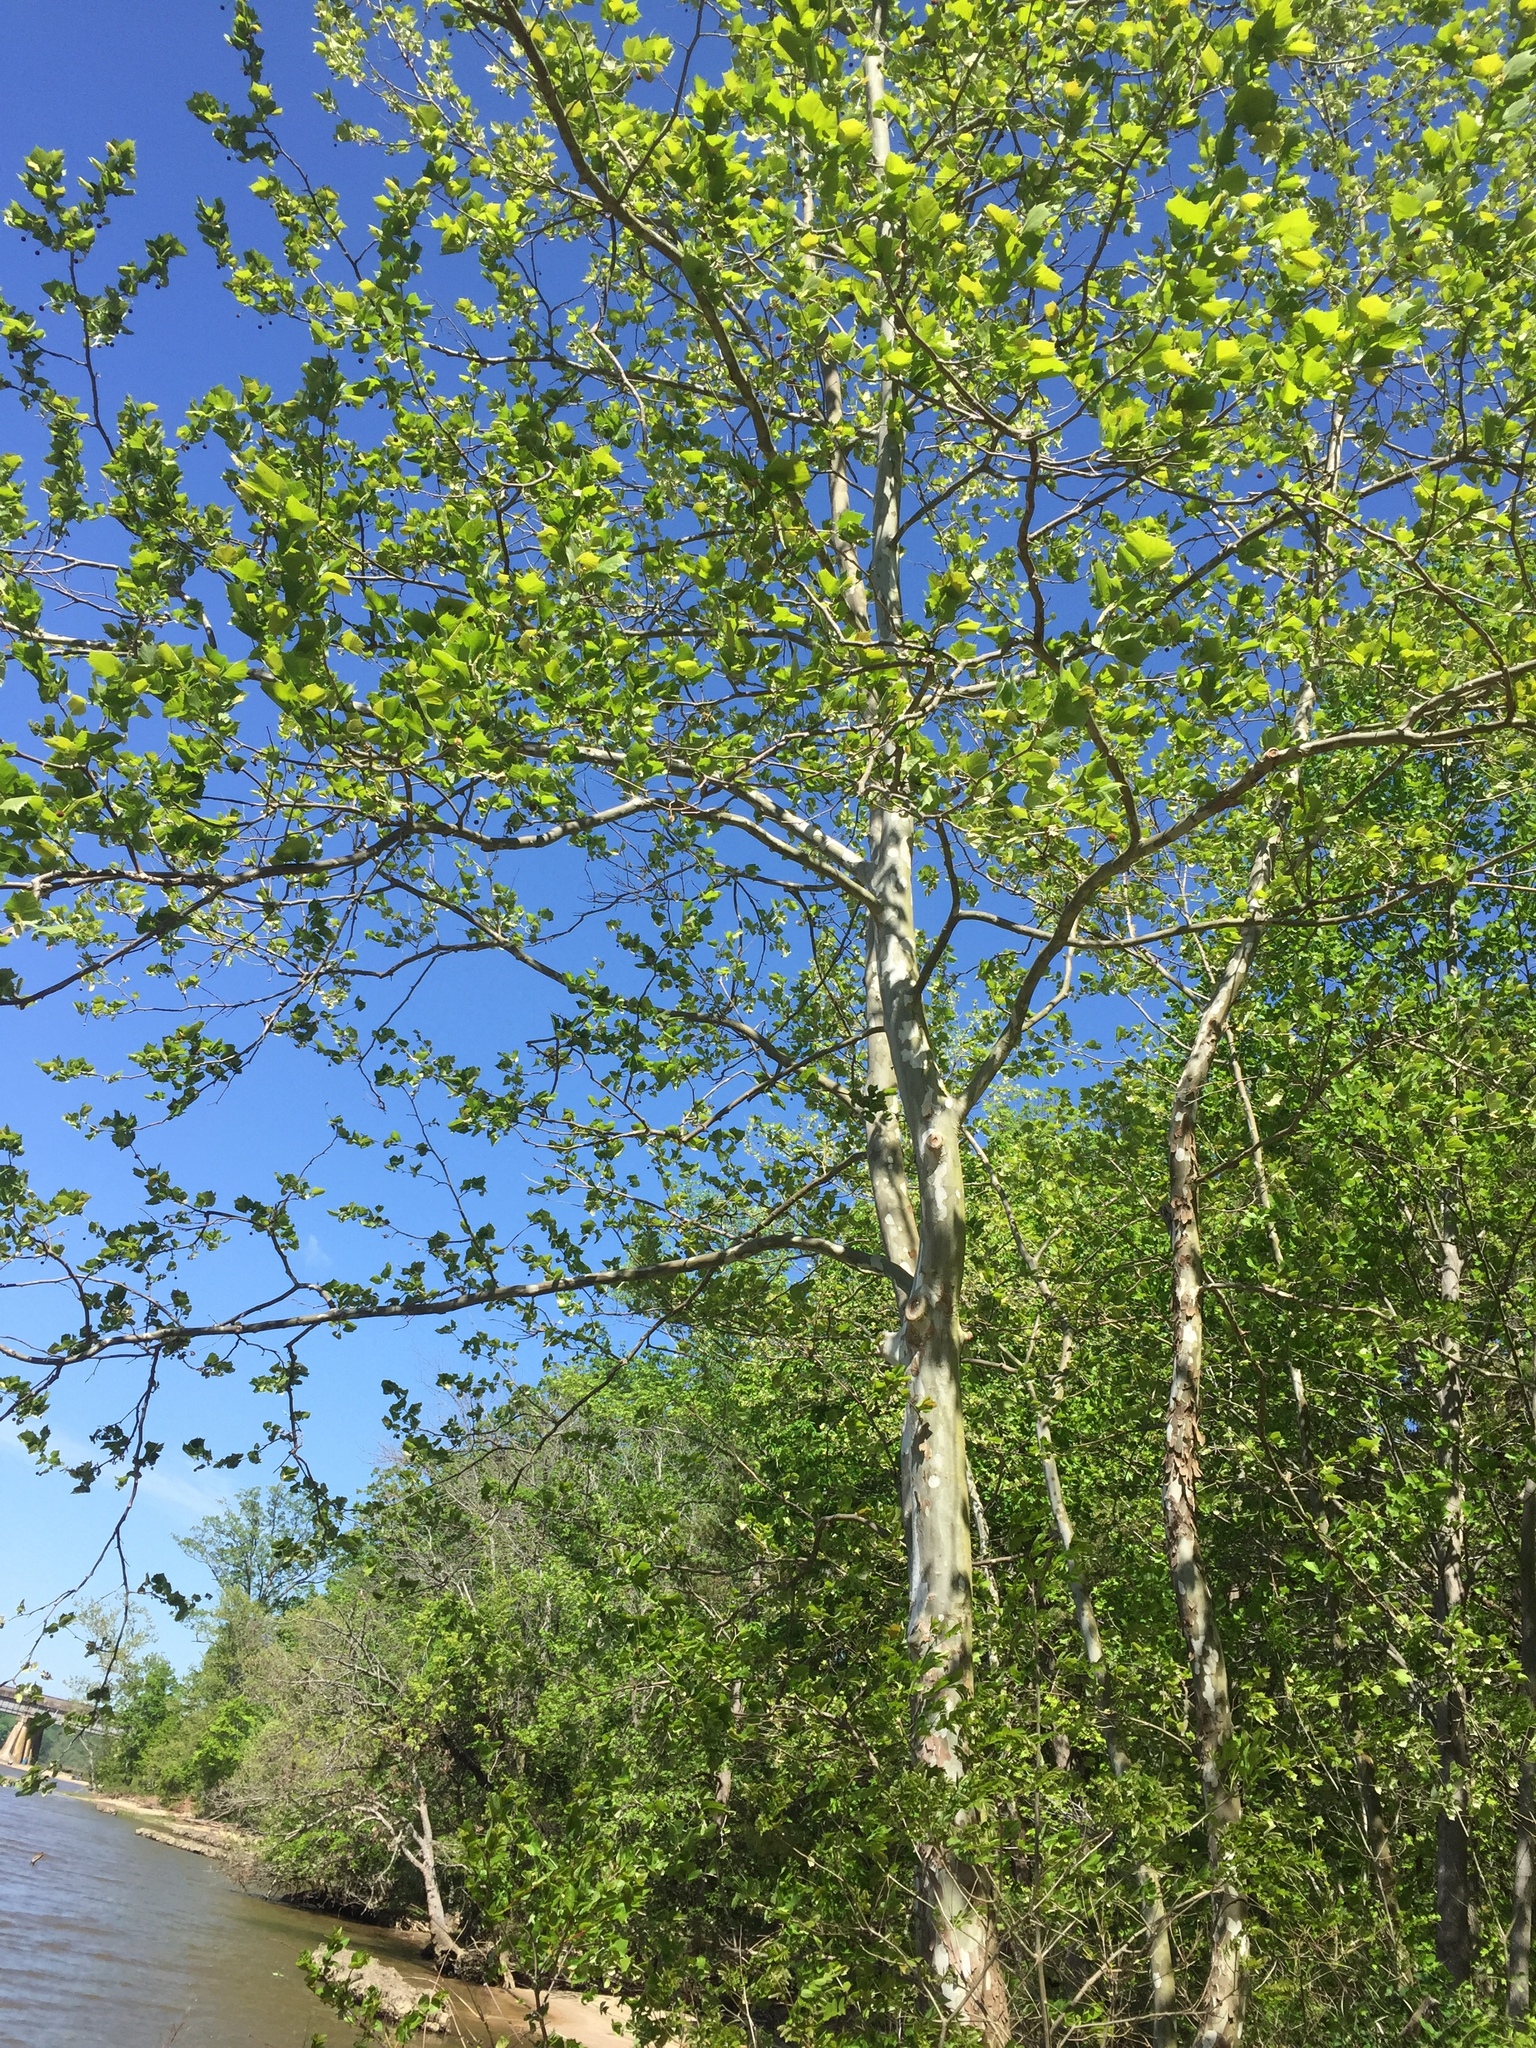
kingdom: Plantae
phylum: Tracheophyta
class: Magnoliopsida
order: Proteales
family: Platanaceae
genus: Platanus
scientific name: Platanus occidentalis
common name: American sycamore
